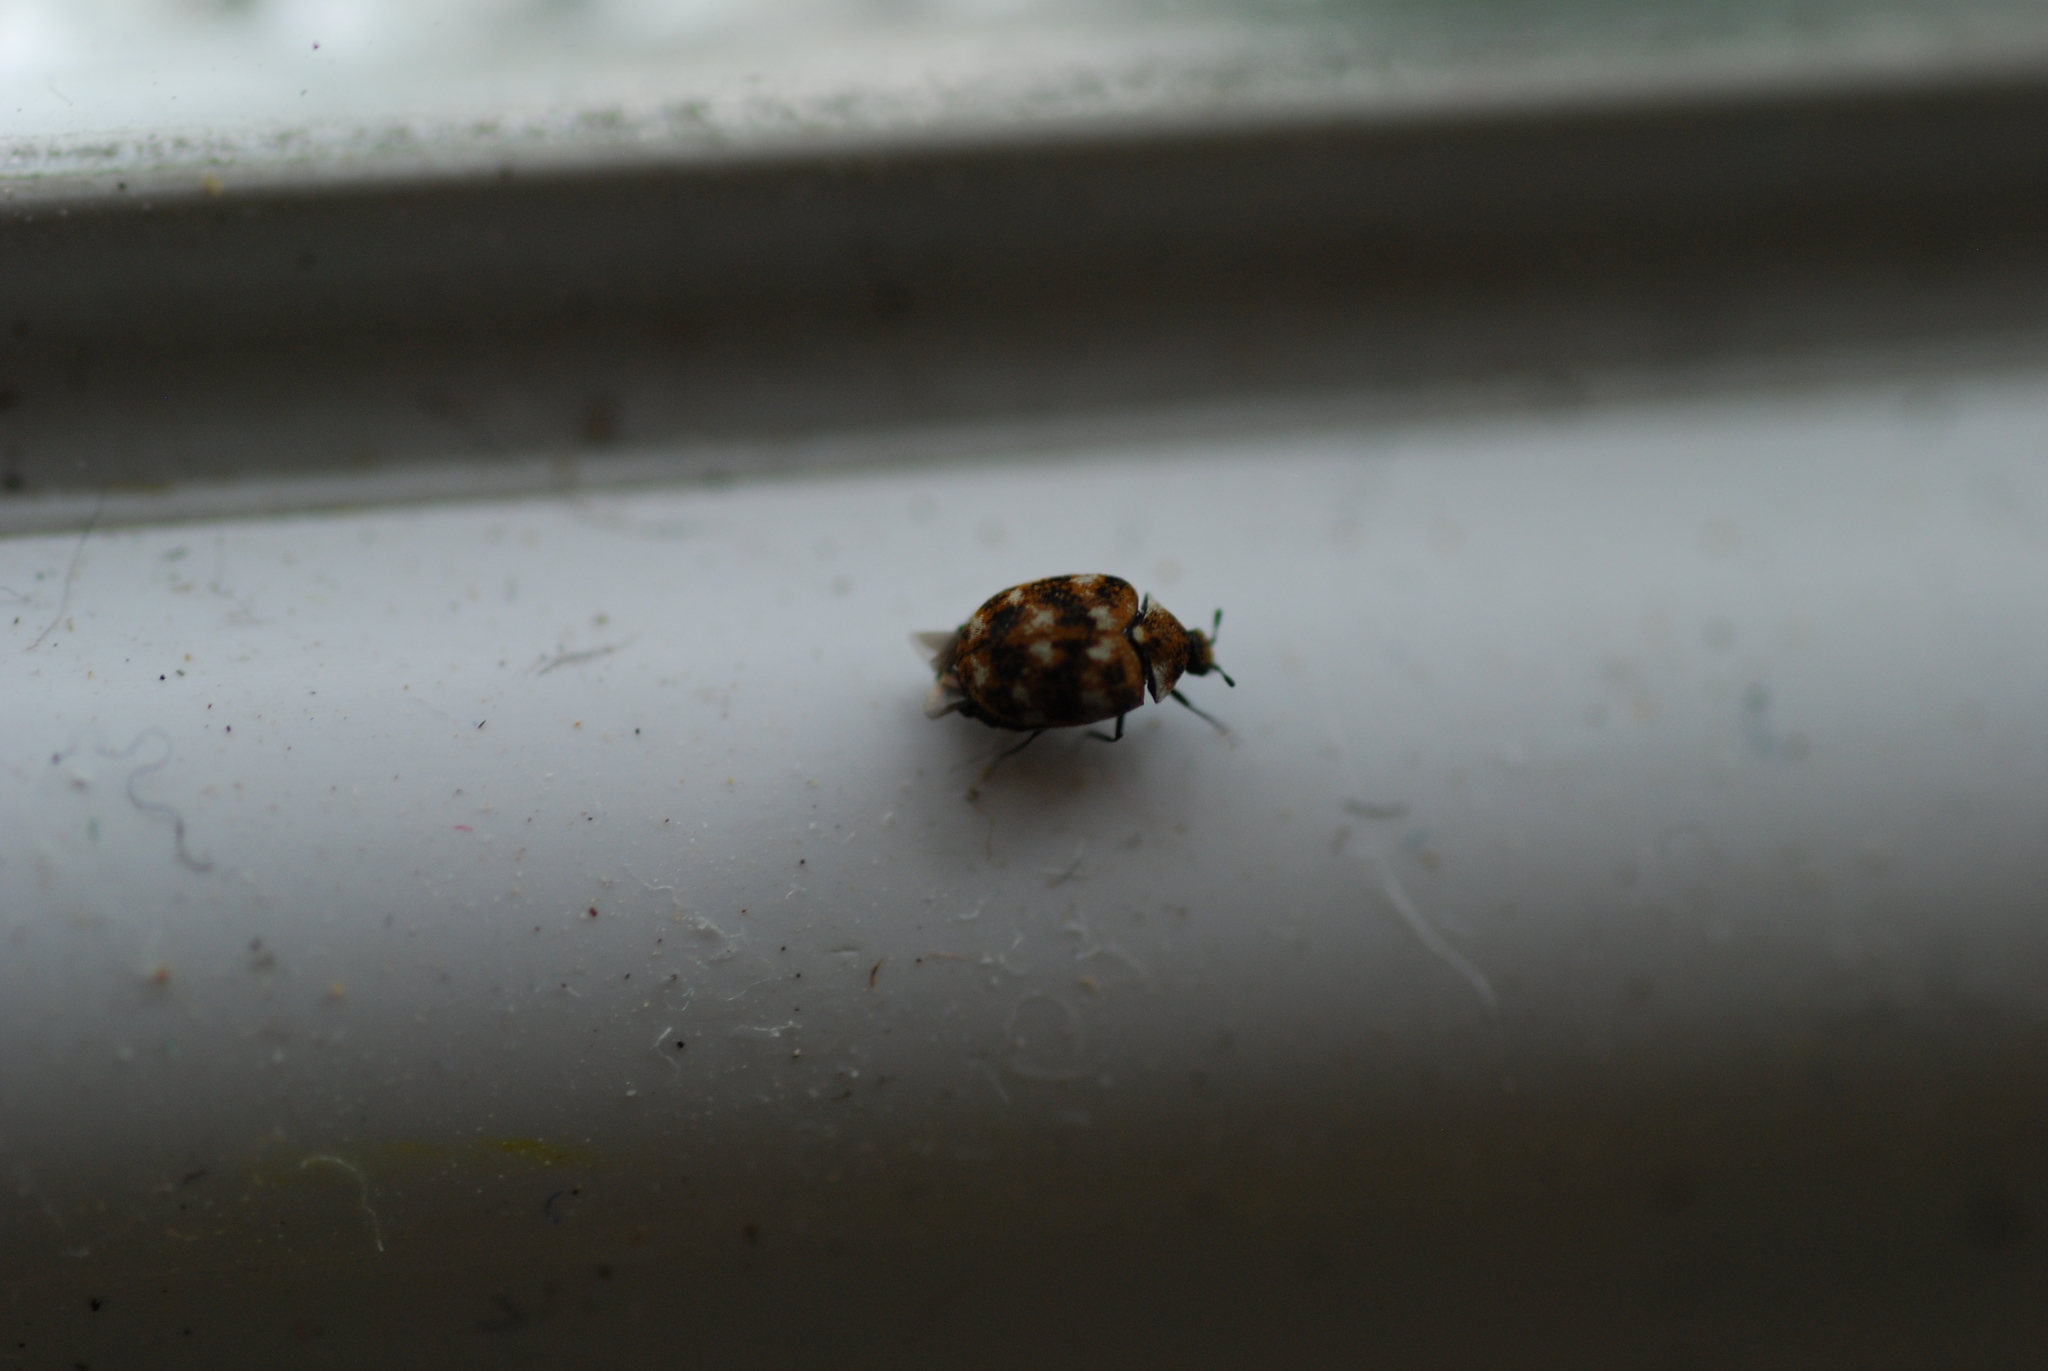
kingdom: Animalia
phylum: Arthropoda
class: Insecta
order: Coleoptera
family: Dermestidae
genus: Anthrenus
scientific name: Anthrenus verbasci
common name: Varied carpet beetle
